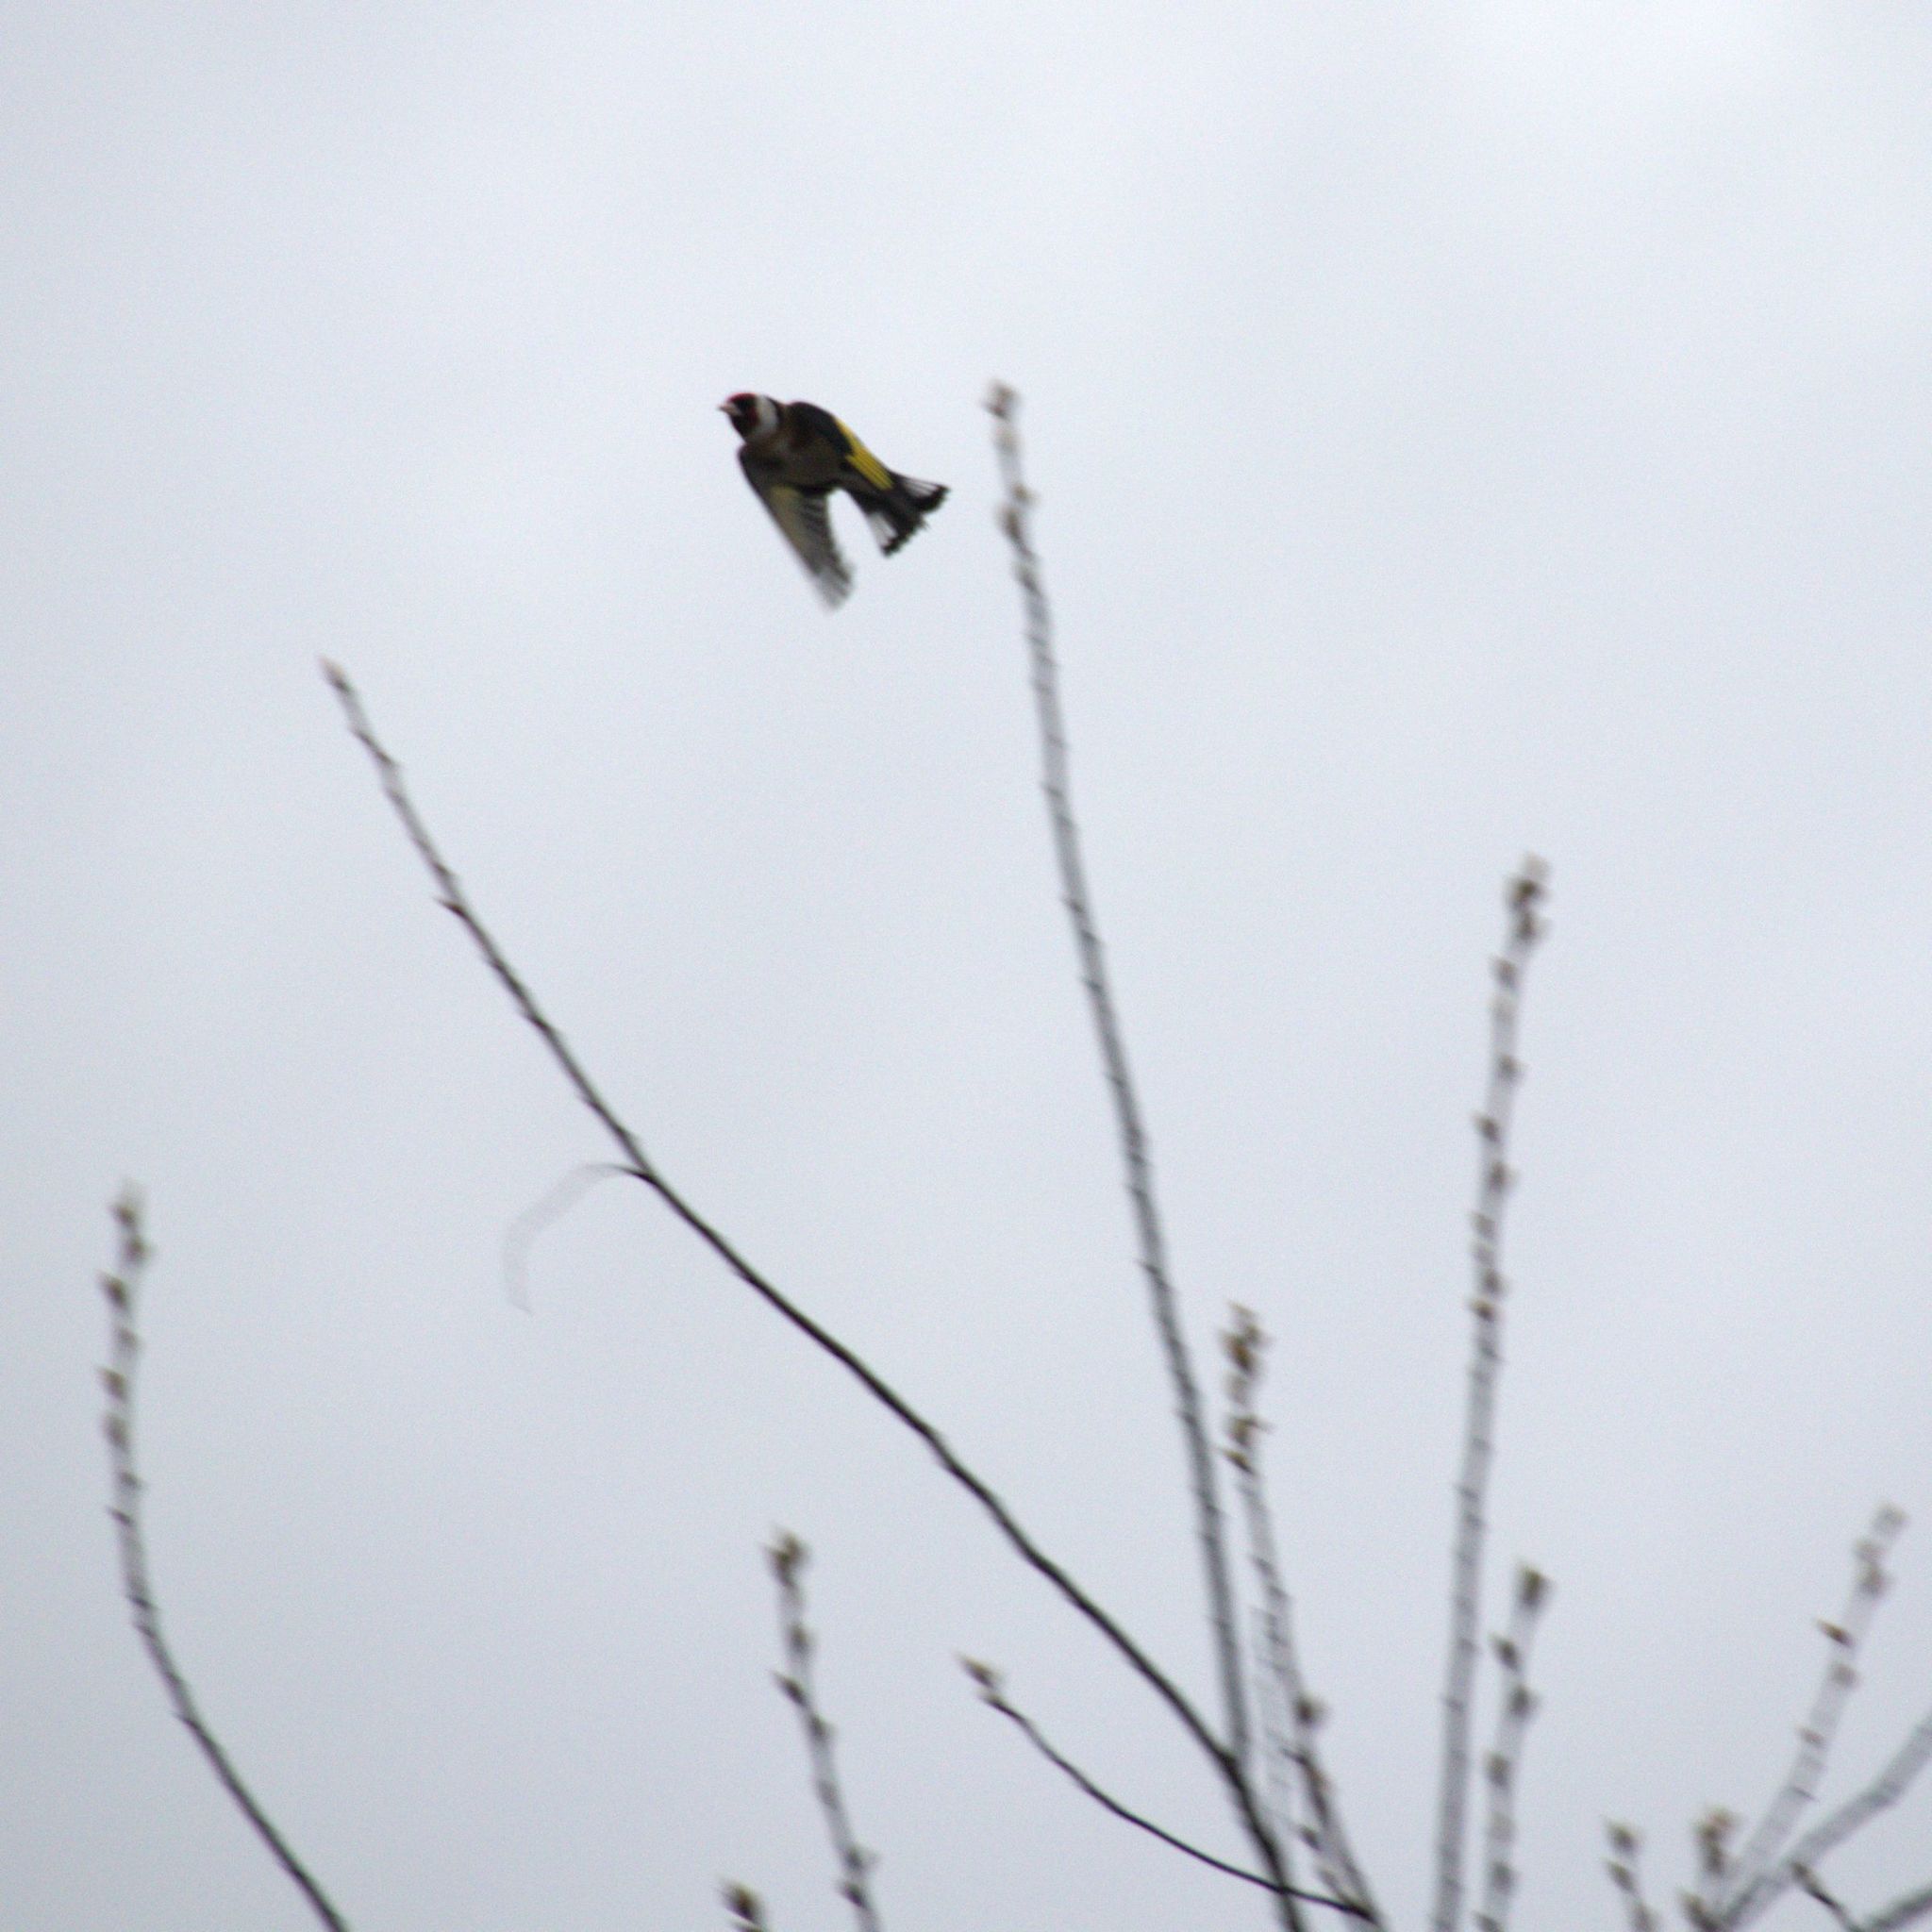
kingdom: Animalia
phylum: Chordata
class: Aves
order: Passeriformes
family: Fringillidae
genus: Carduelis
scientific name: Carduelis carduelis
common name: European goldfinch
